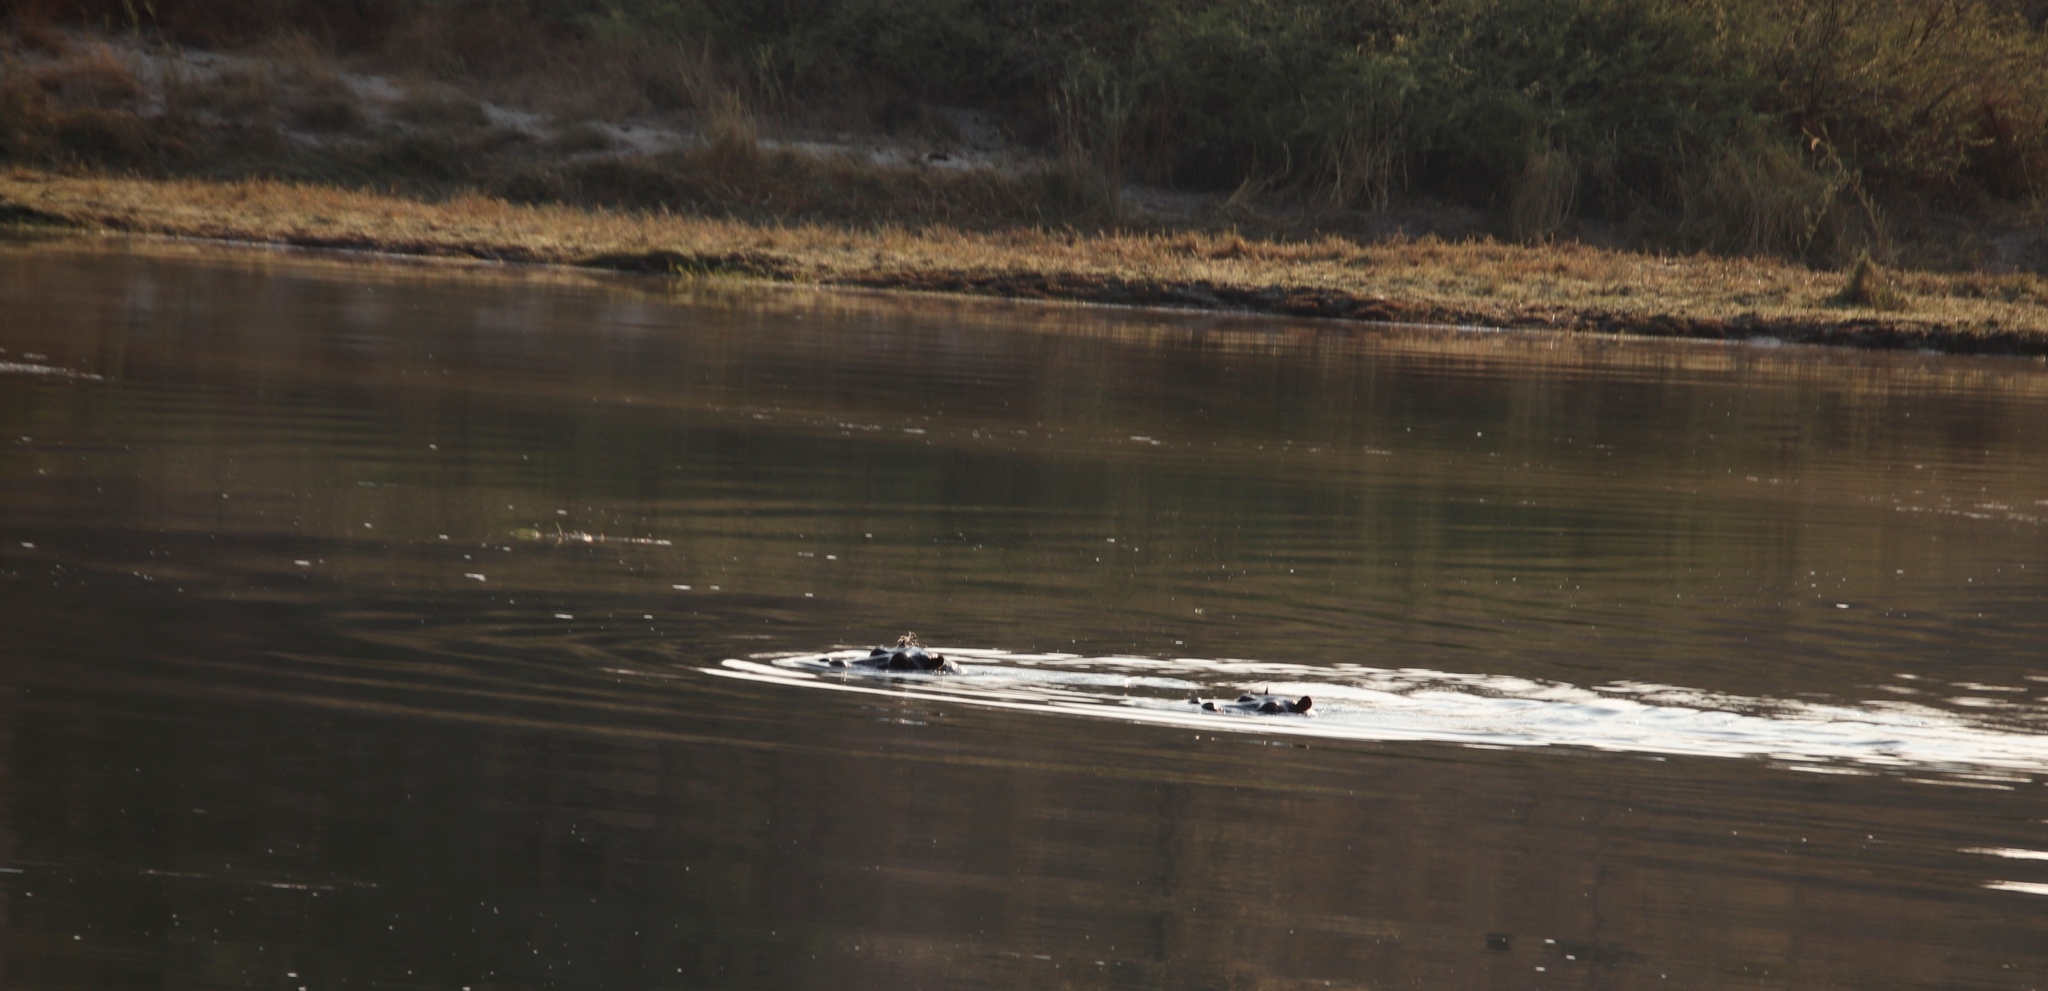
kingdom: Animalia
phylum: Chordata
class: Mammalia
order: Artiodactyla
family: Hippopotamidae
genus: Hippopotamus
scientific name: Hippopotamus amphibius
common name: Common hippopotamus
